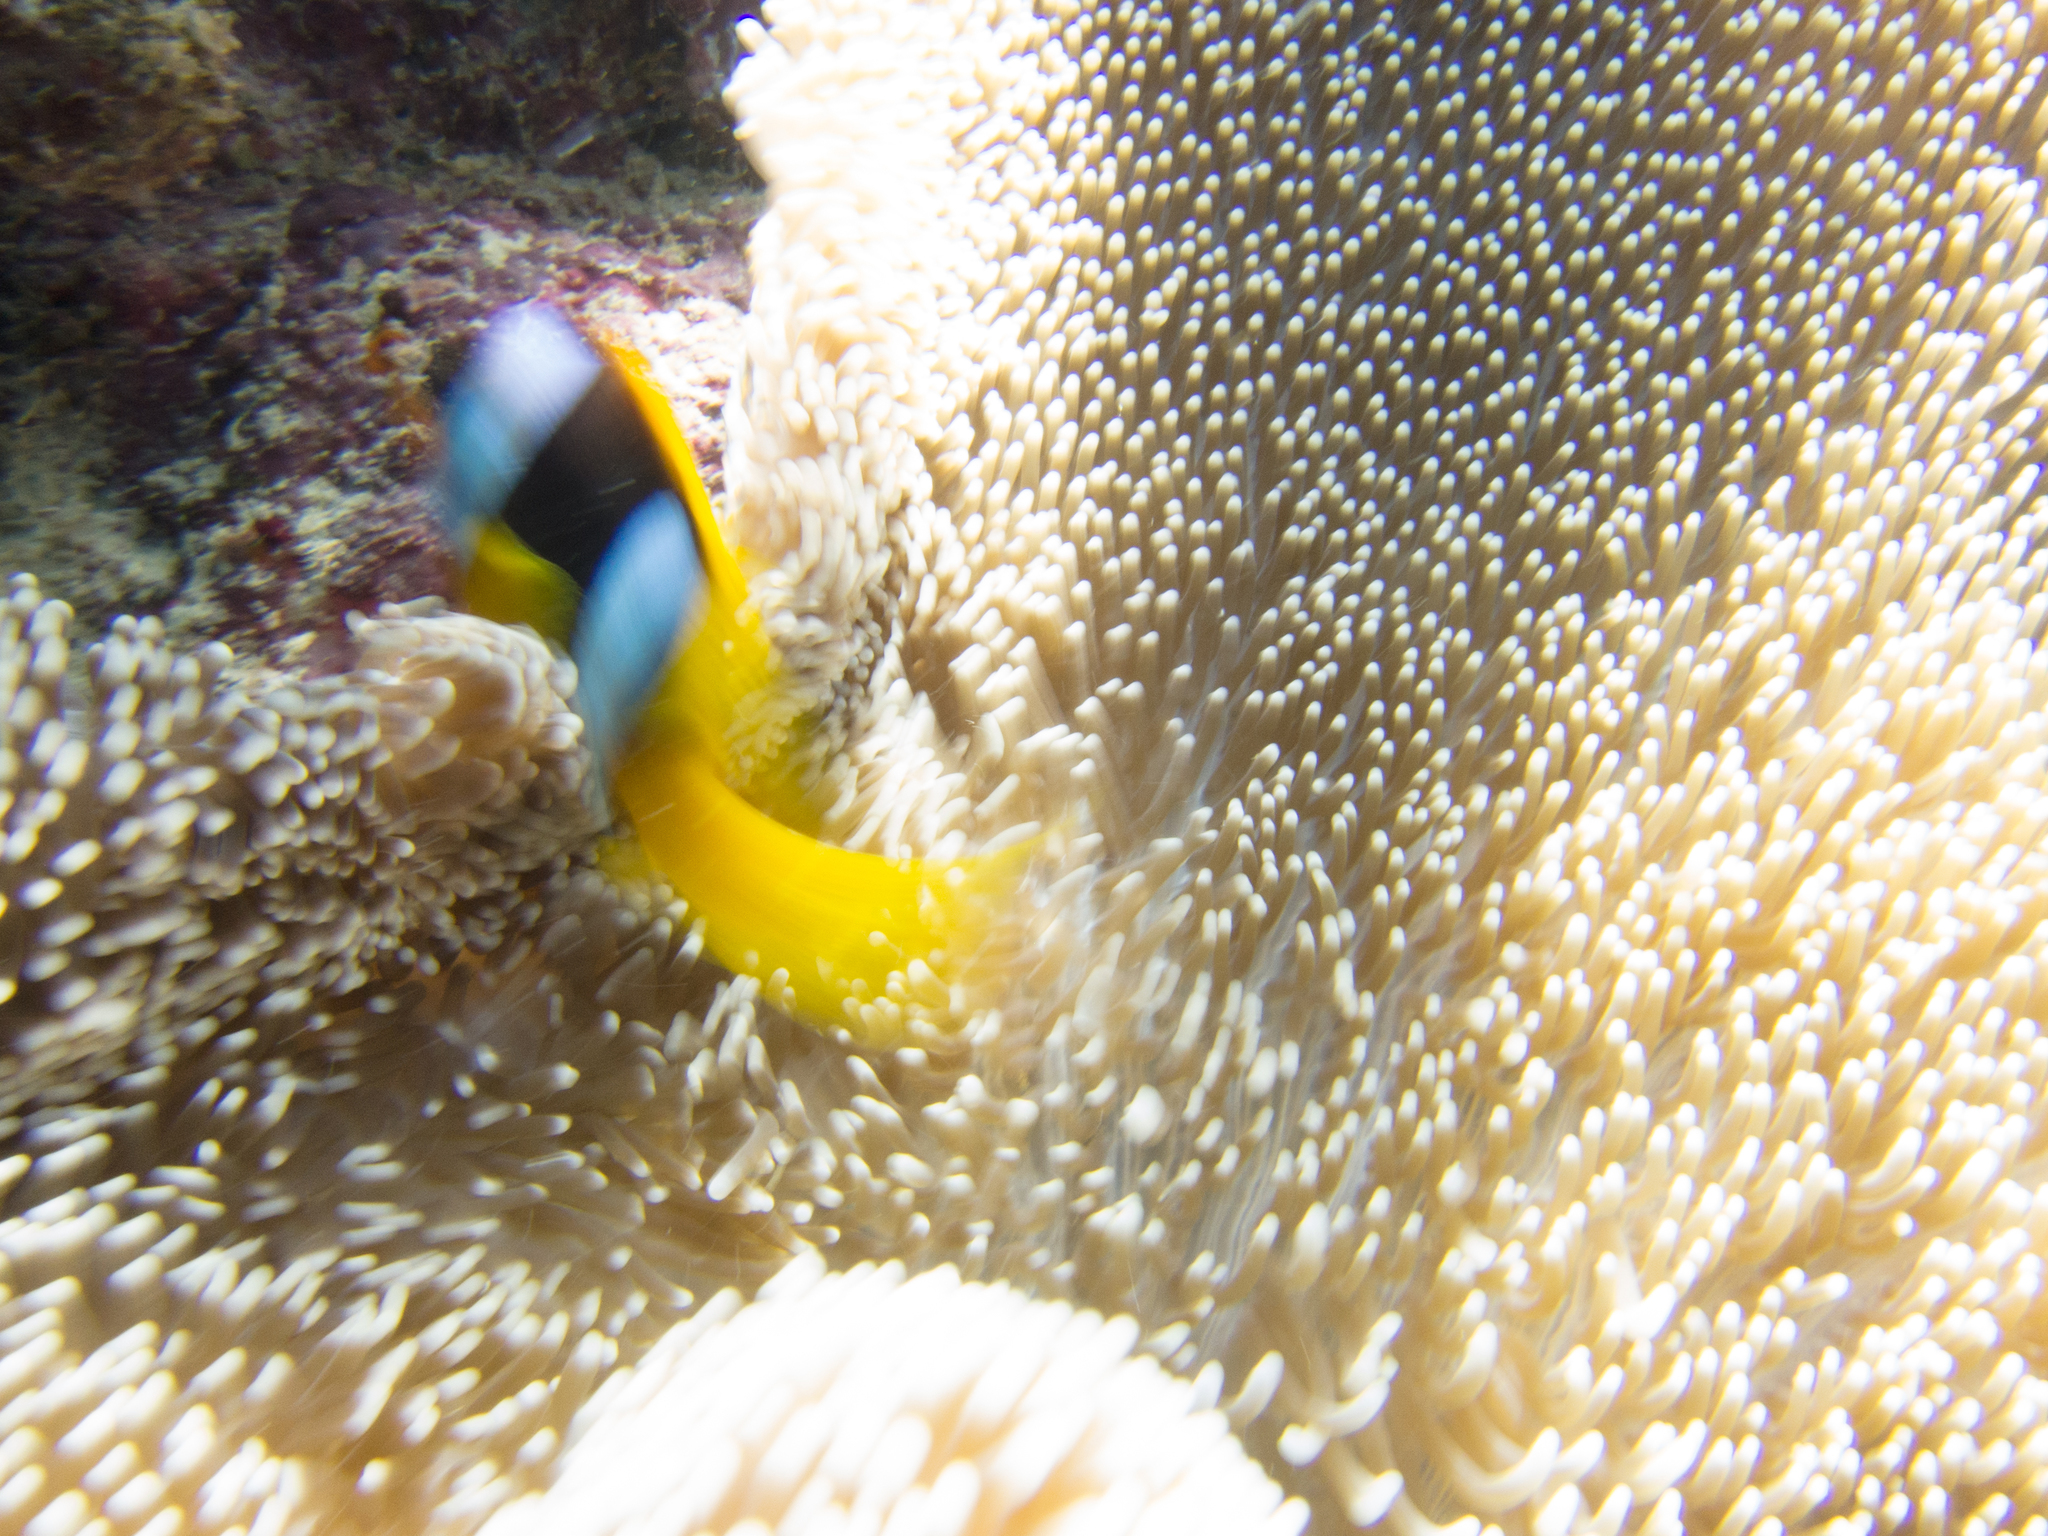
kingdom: Animalia
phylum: Chordata
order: Perciformes
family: Pomacentridae
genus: Amphiprion
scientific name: Amphiprion bicinctus
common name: Two-banded anemonefish
